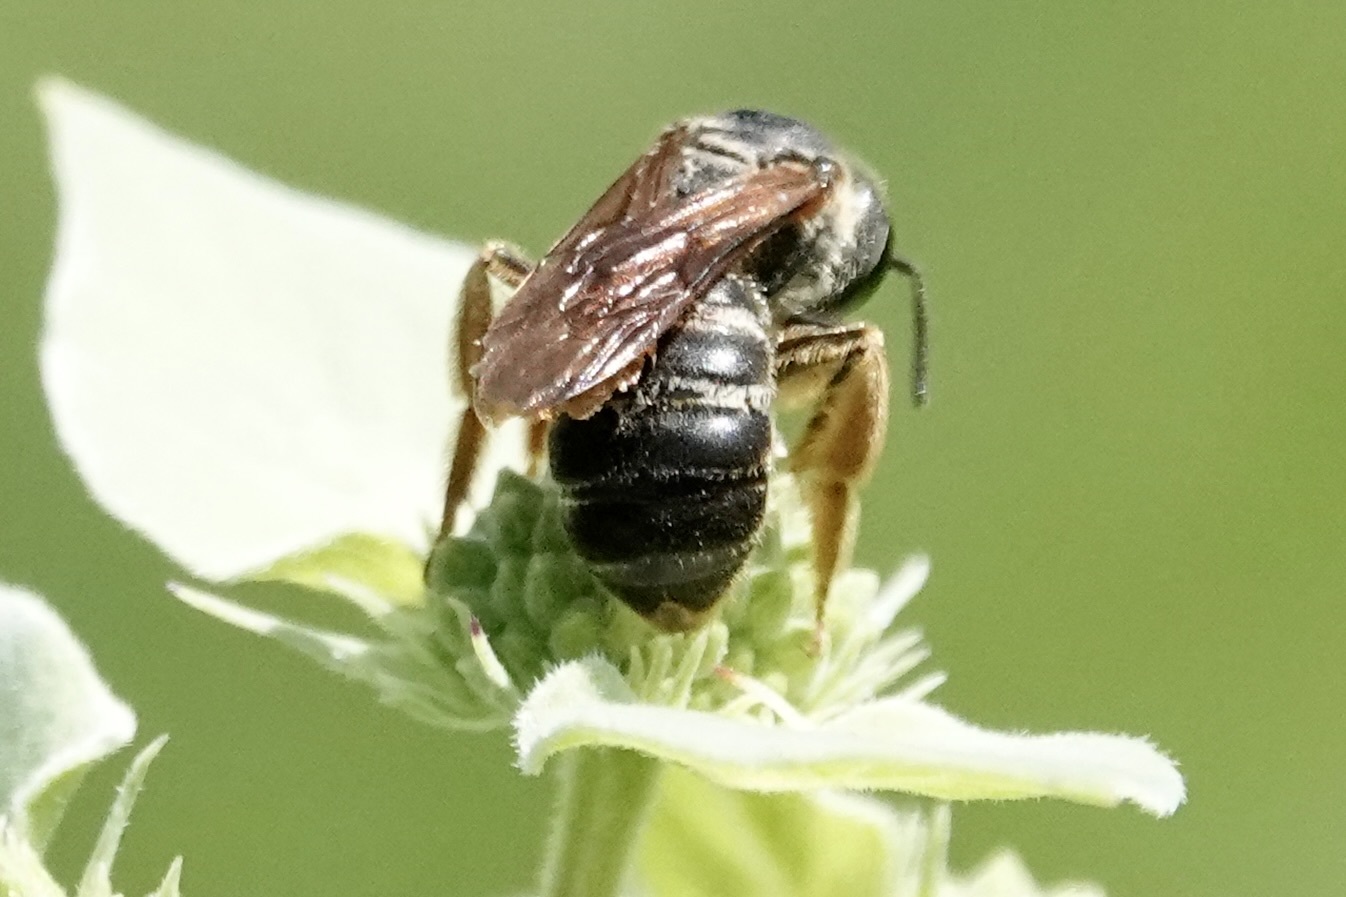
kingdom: Animalia
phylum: Arthropoda
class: Insecta
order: Hymenoptera
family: Halictidae
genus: Halictus
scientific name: Halictus parallelus
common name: Parallel-striped sweat bee
